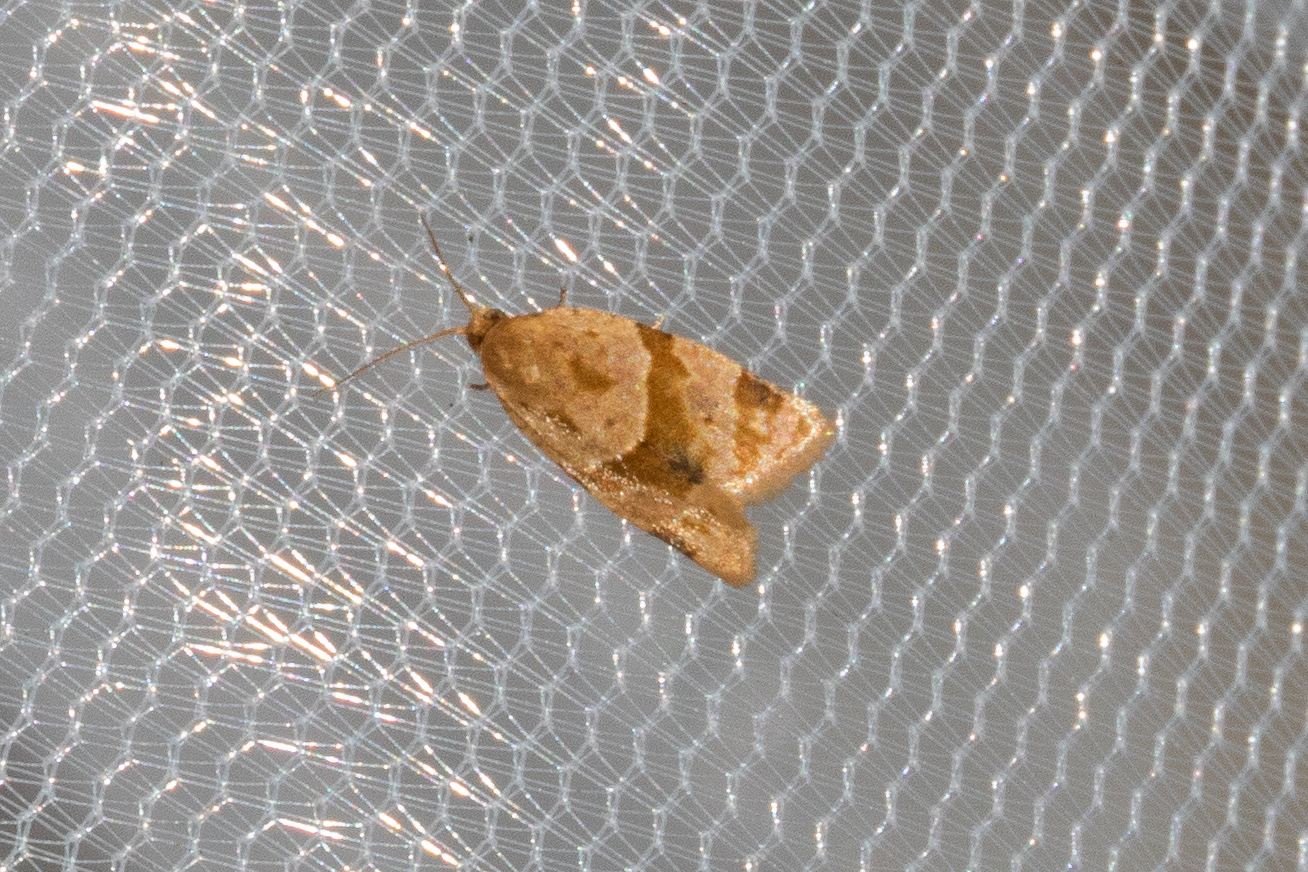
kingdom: Animalia
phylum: Arthropoda
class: Insecta
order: Lepidoptera
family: Tortricidae
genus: Clepsis
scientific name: Clepsis peritana
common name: Garden tortrix
